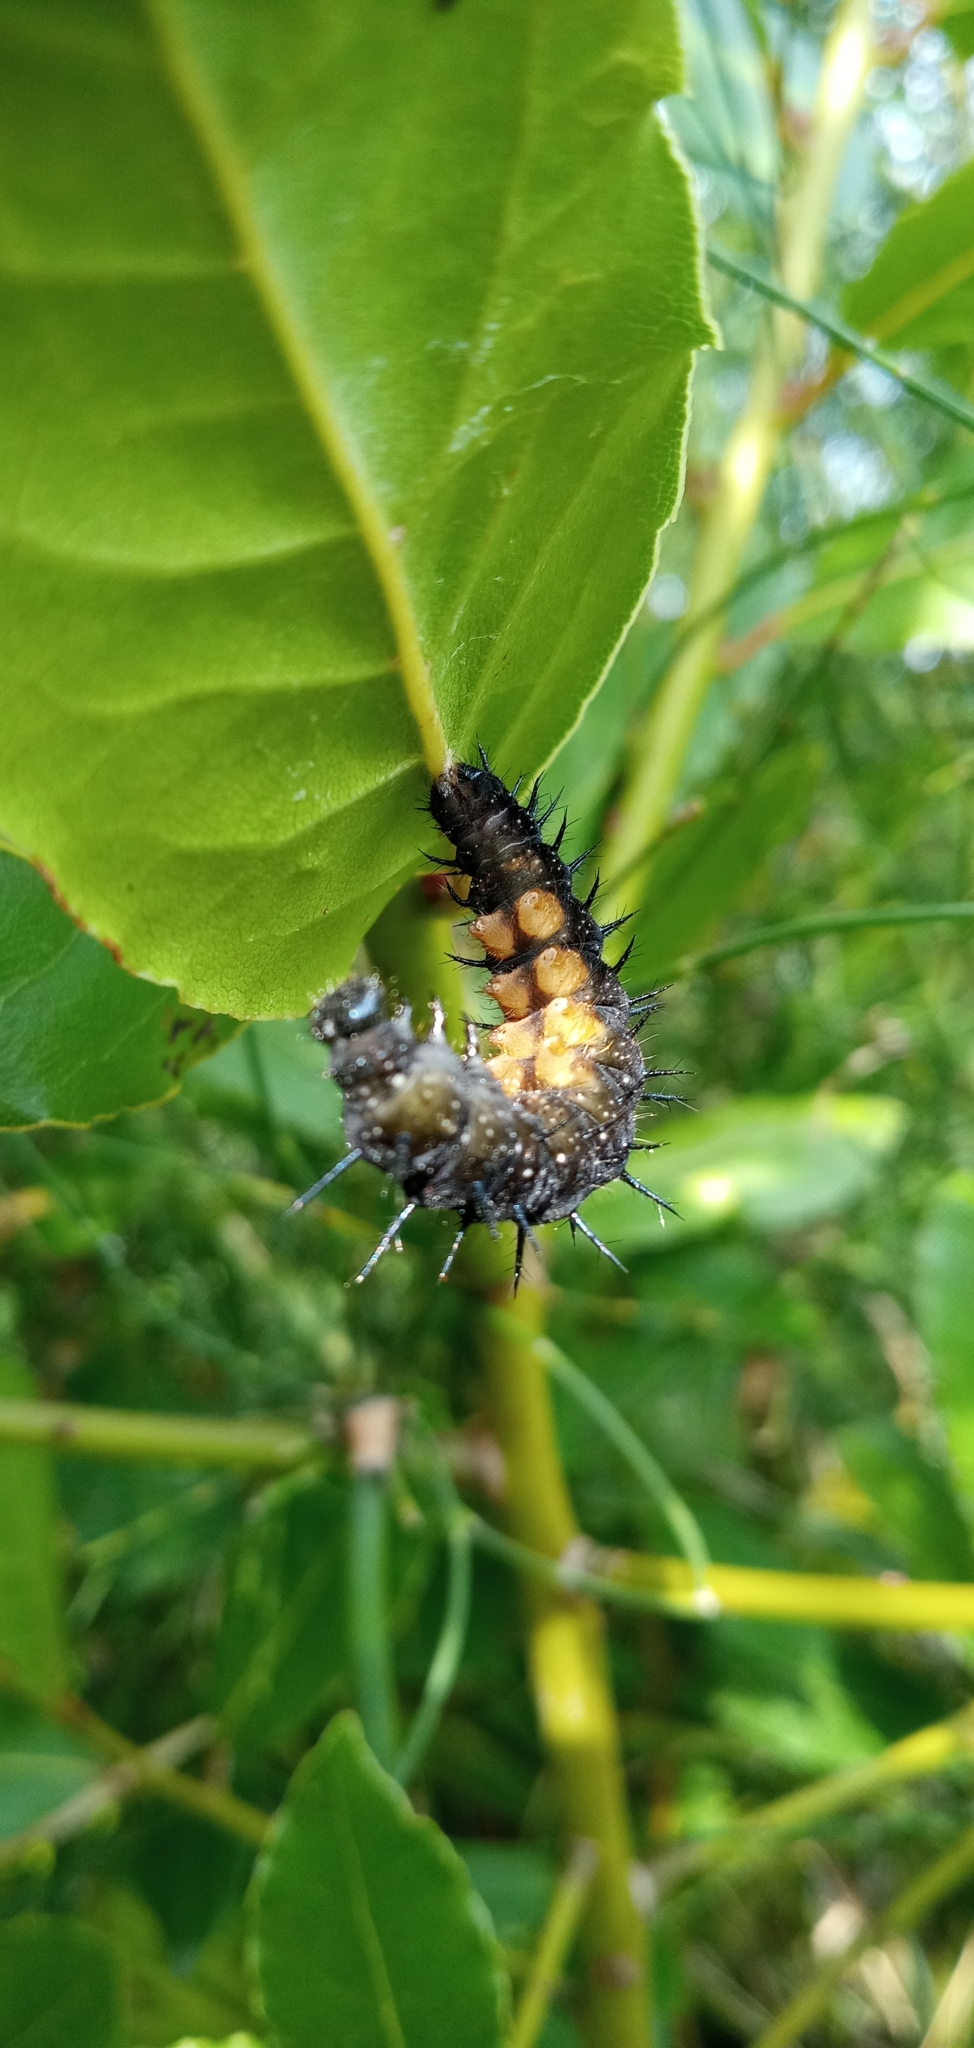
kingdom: Animalia
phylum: Arthropoda
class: Insecta
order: Lepidoptera
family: Nymphalidae
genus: Aglais
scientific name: Aglais io
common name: Peacock
